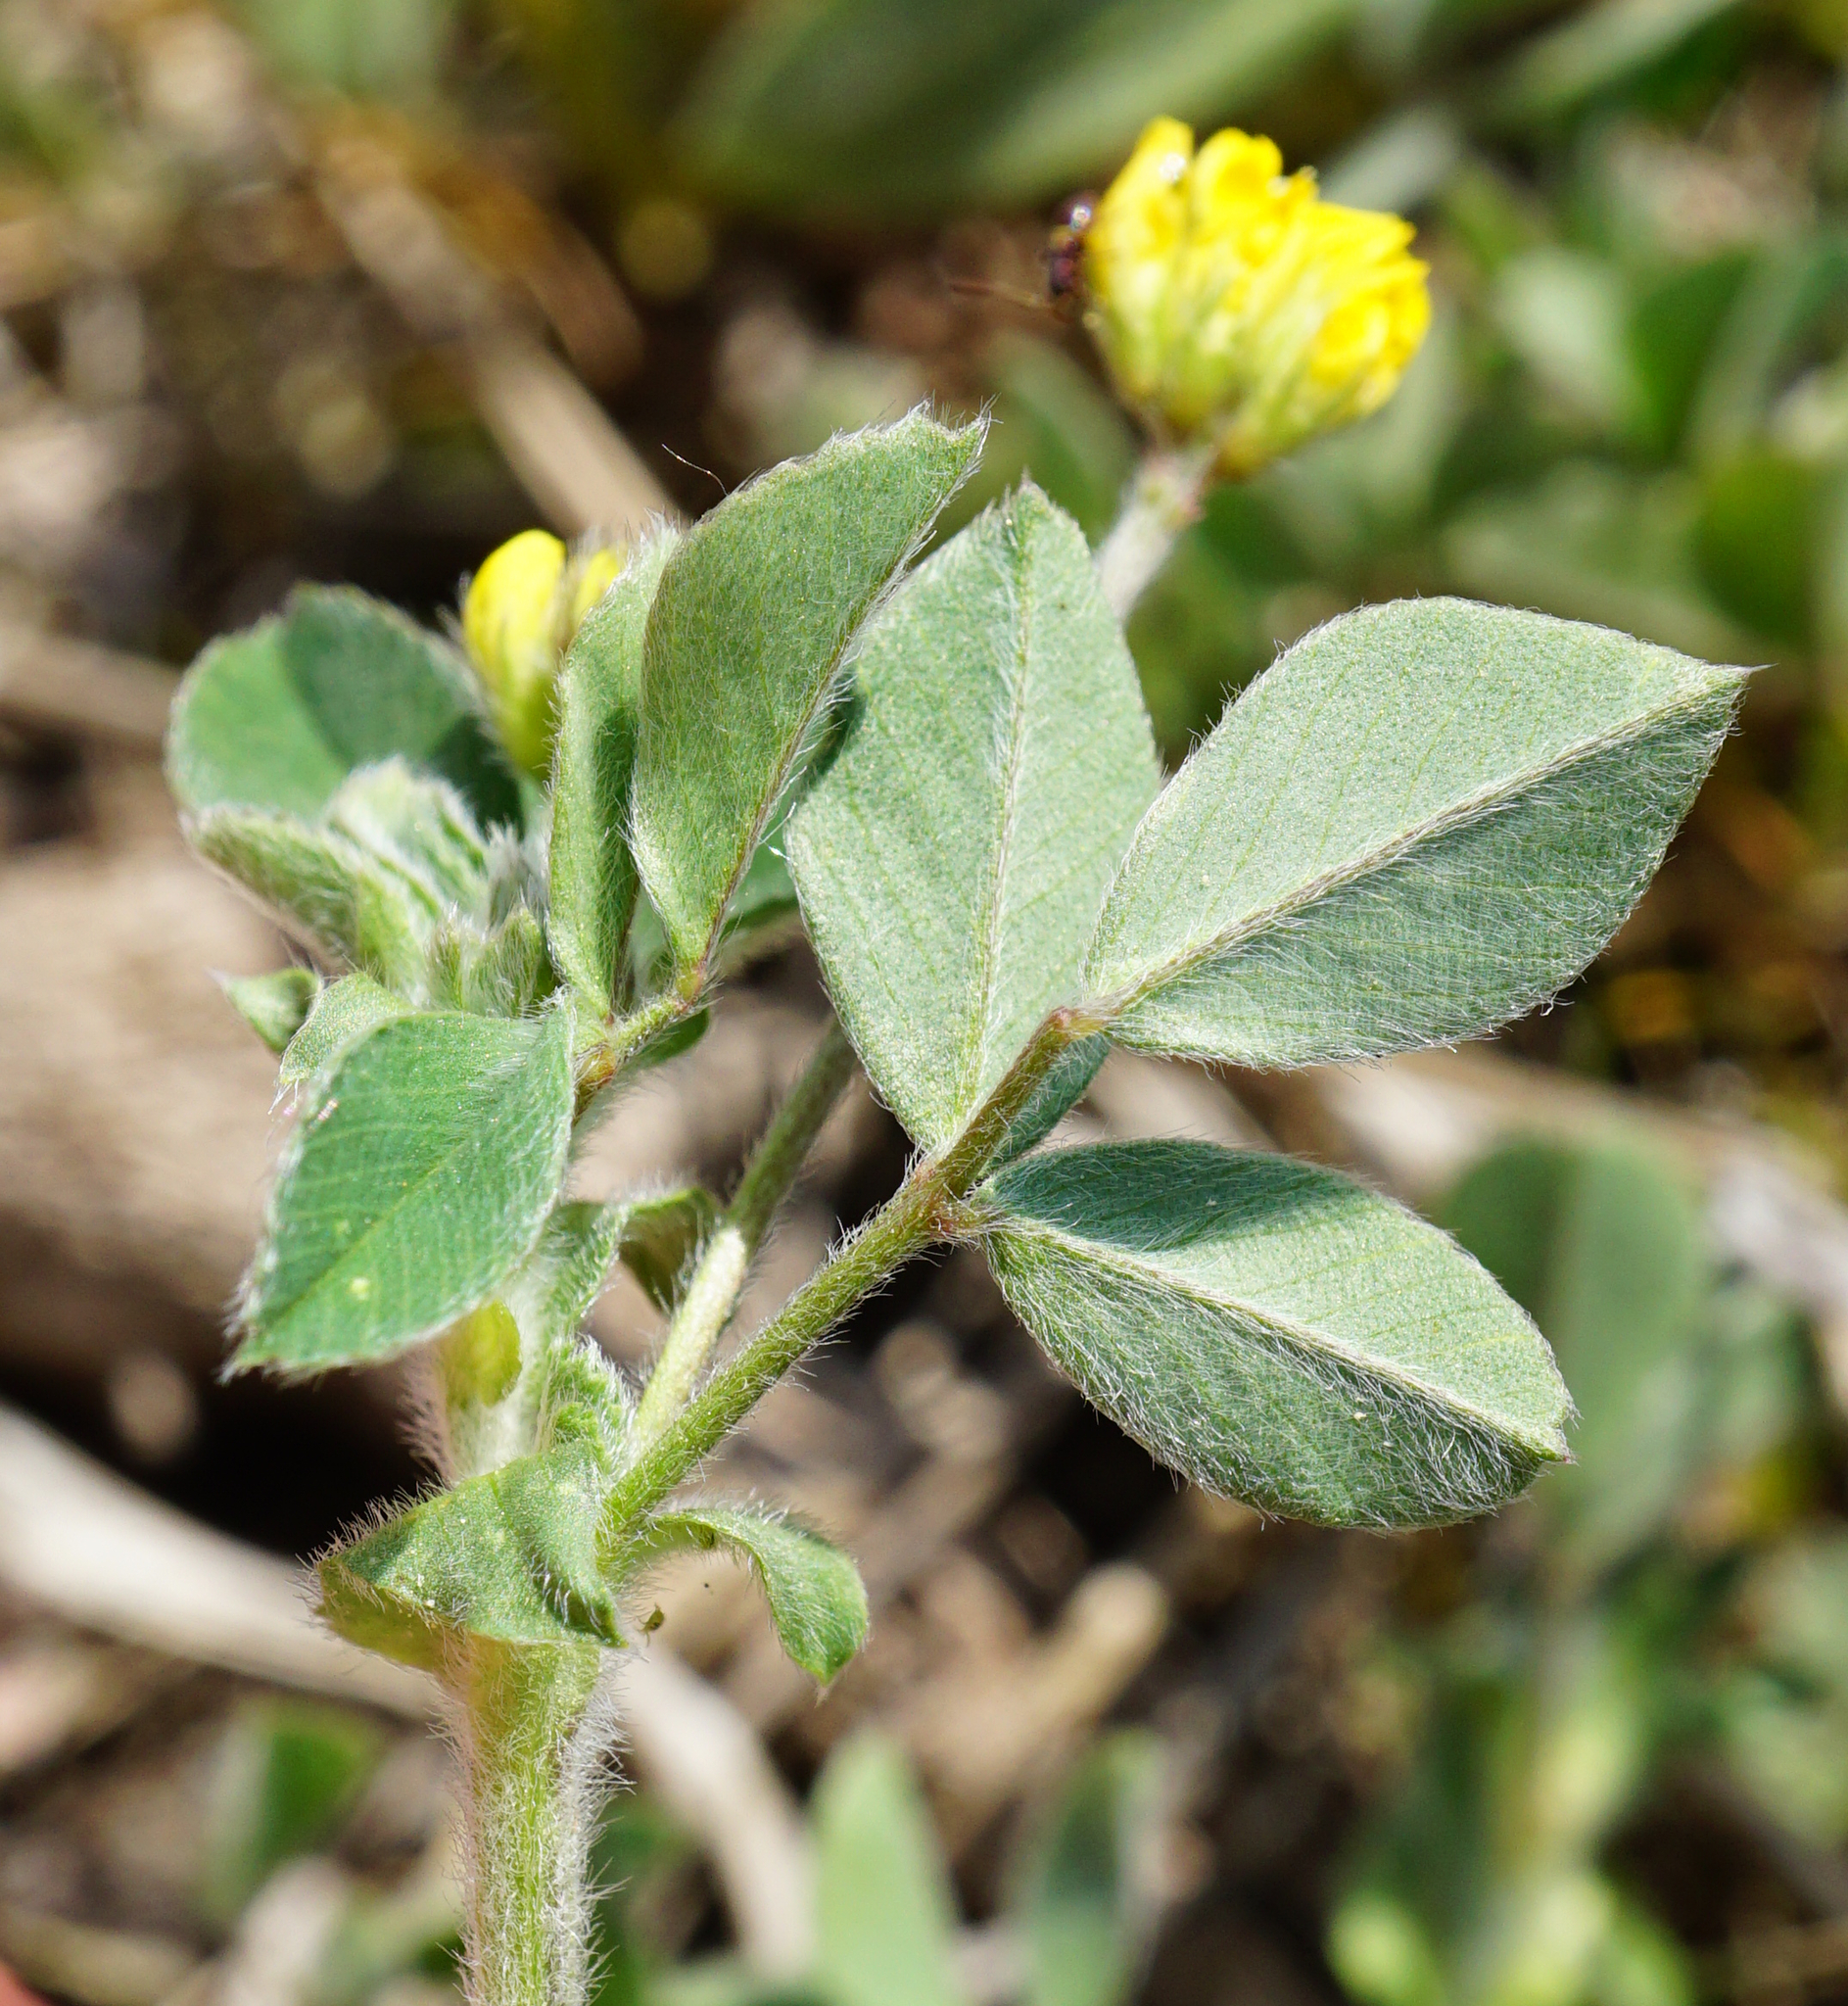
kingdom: Plantae
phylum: Tracheophyta
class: Magnoliopsida
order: Fabales
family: Fabaceae
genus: Medicago
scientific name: Medicago minima
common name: Little bur-clover
